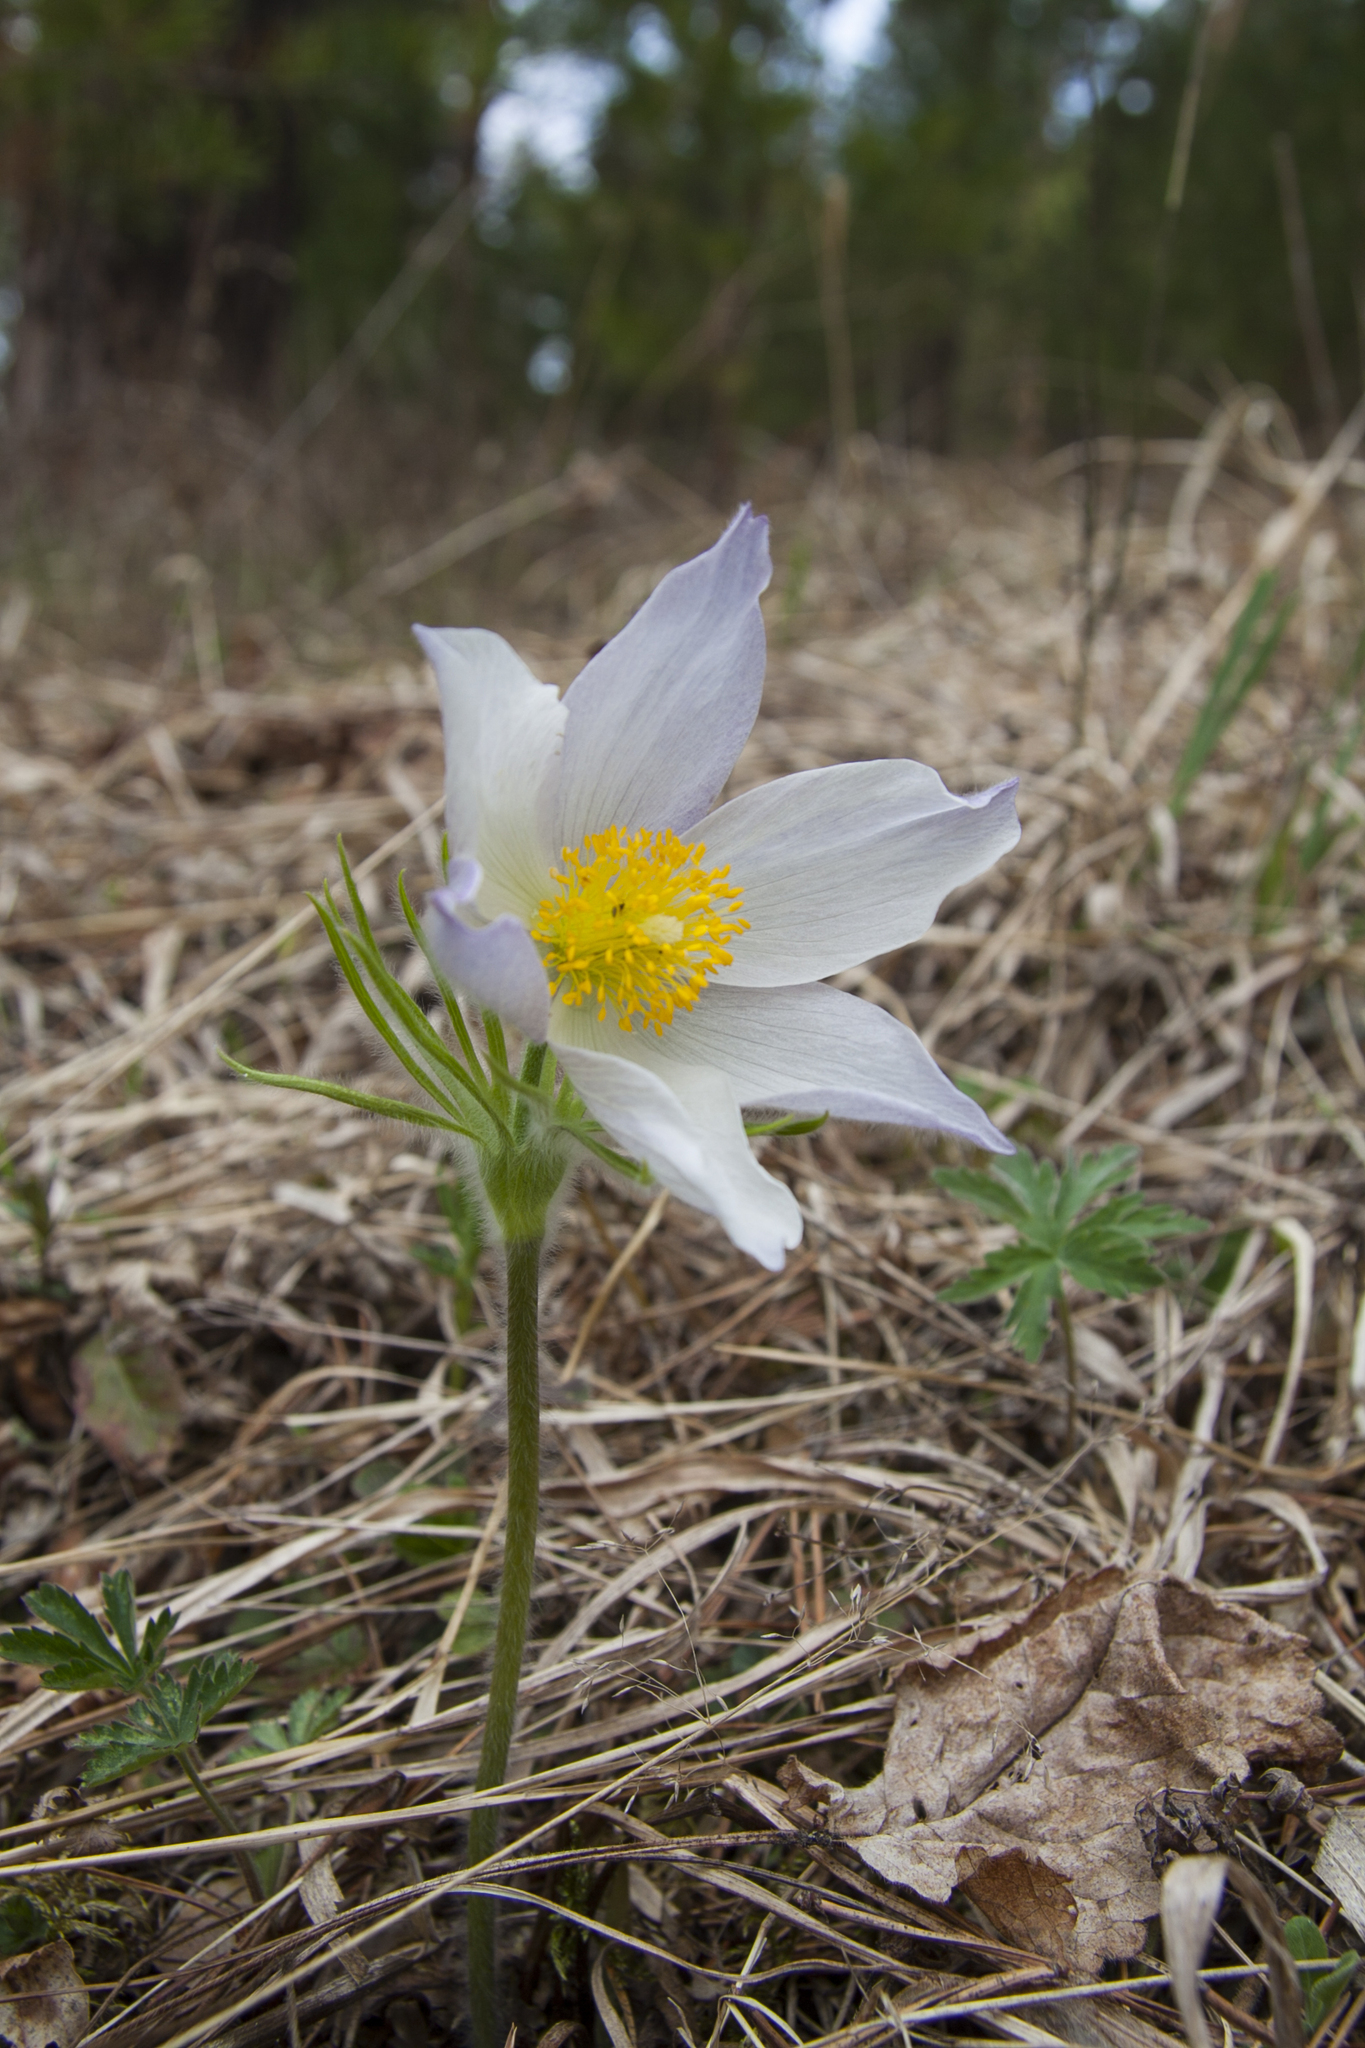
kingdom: Plantae
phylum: Tracheophyta
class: Magnoliopsida
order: Ranunculales
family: Ranunculaceae
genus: Pulsatilla
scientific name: Pulsatilla patens
